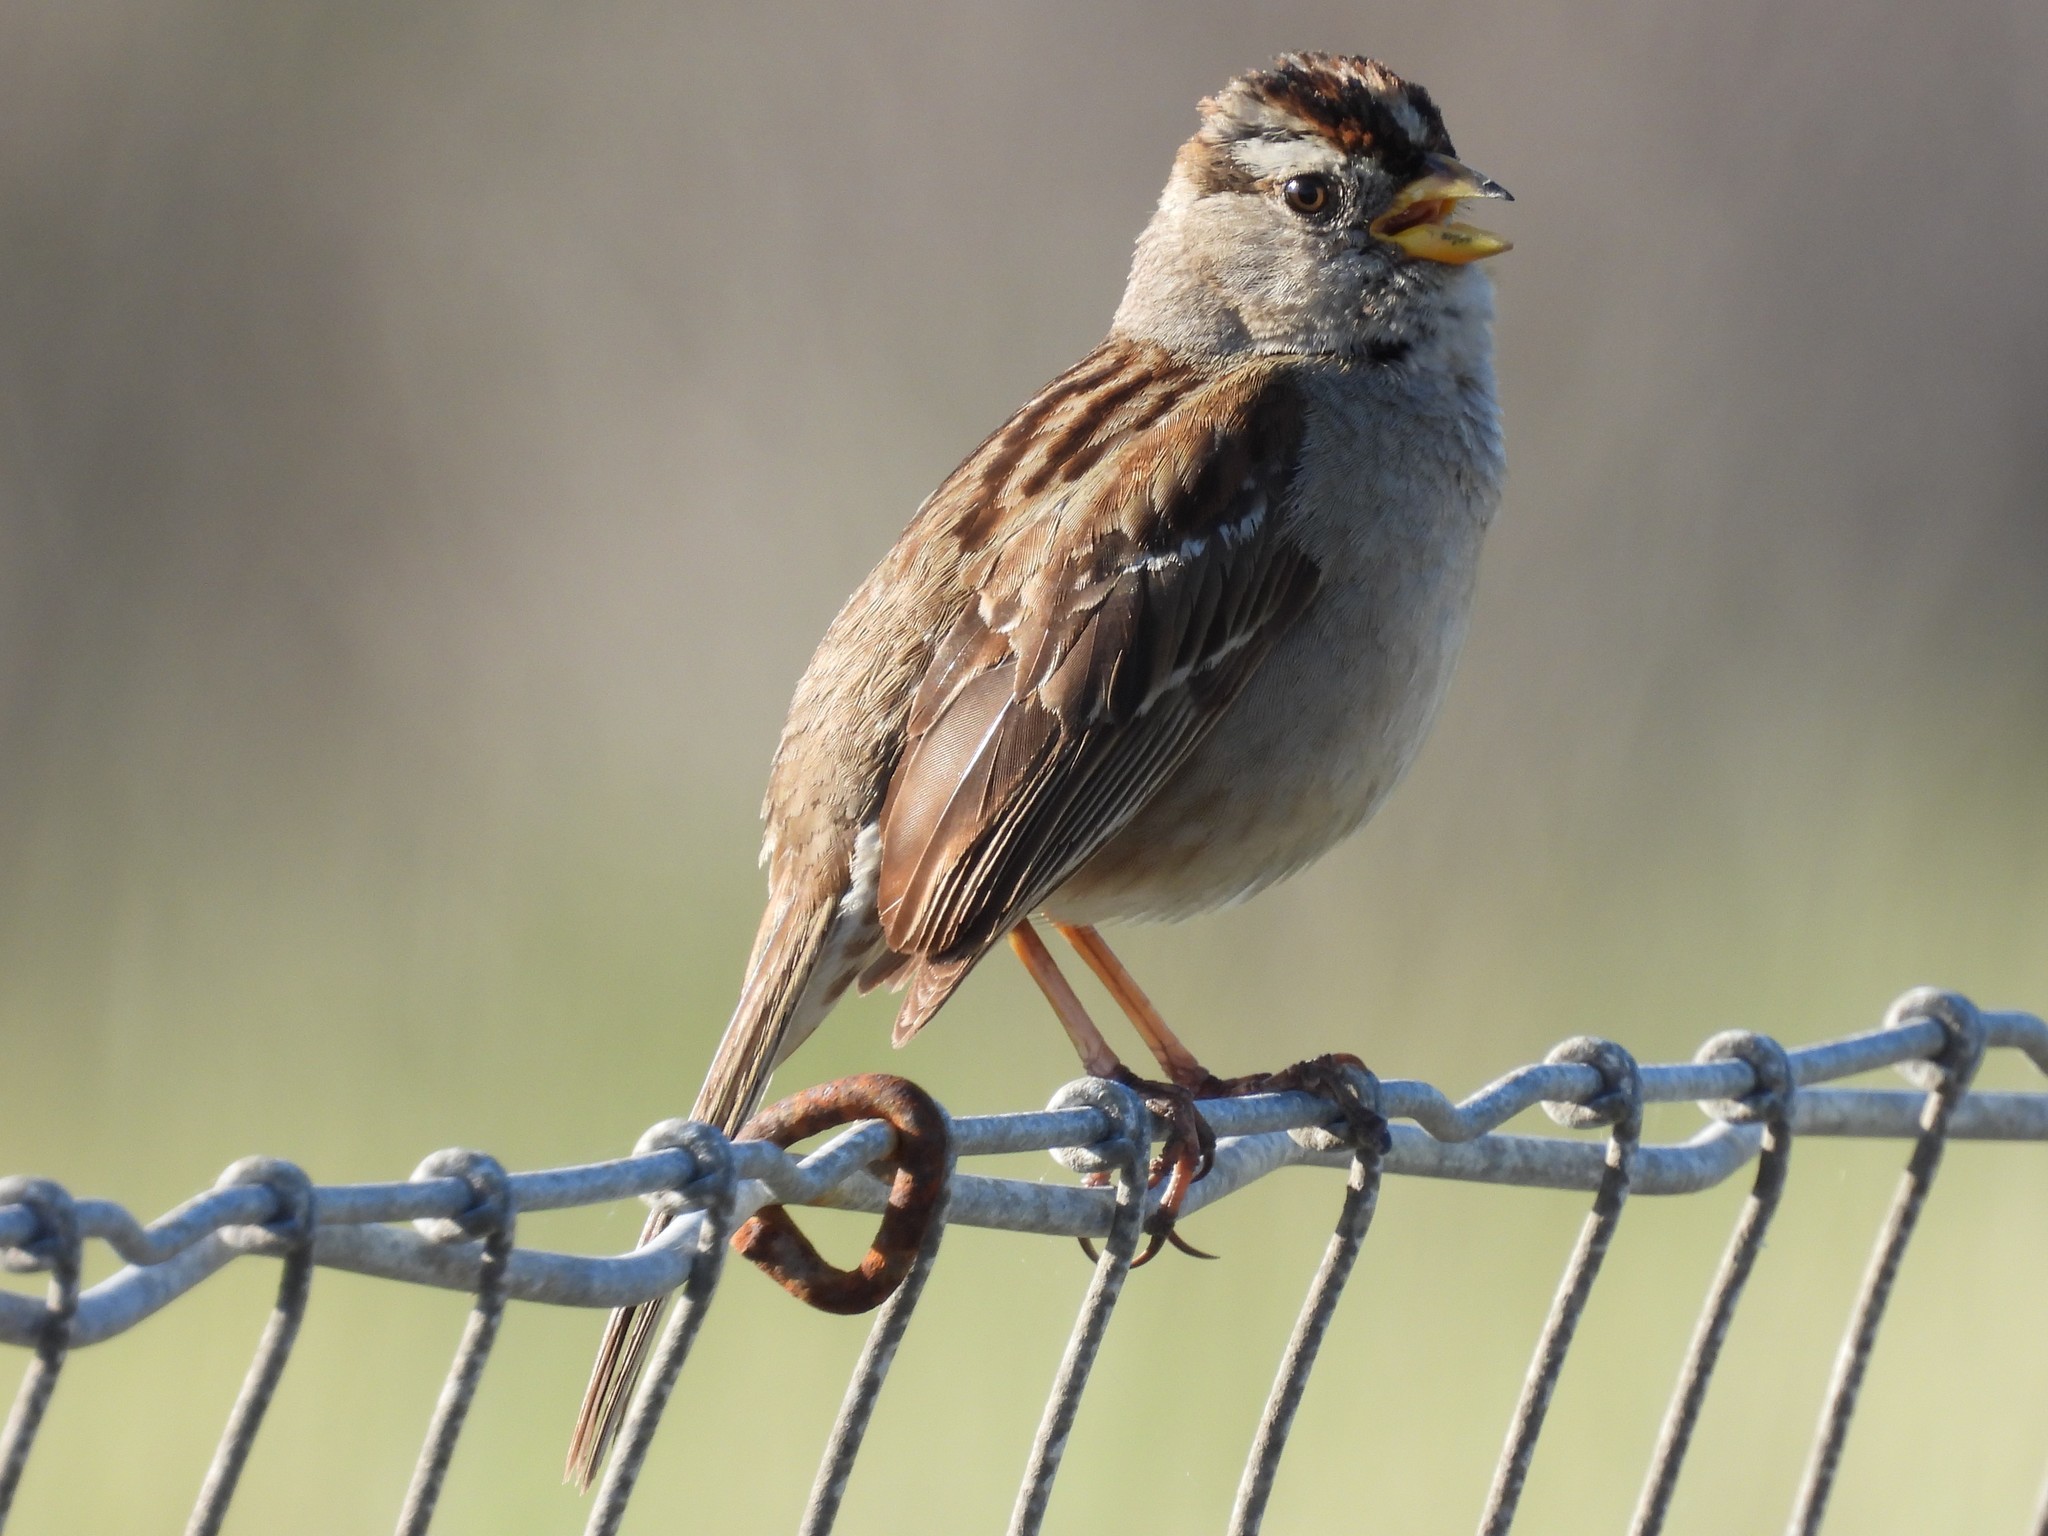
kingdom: Animalia
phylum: Chordata
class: Aves
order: Passeriformes
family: Passerellidae
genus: Zonotrichia
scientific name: Zonotrichia leucophrys
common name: White-crowned sparrow
